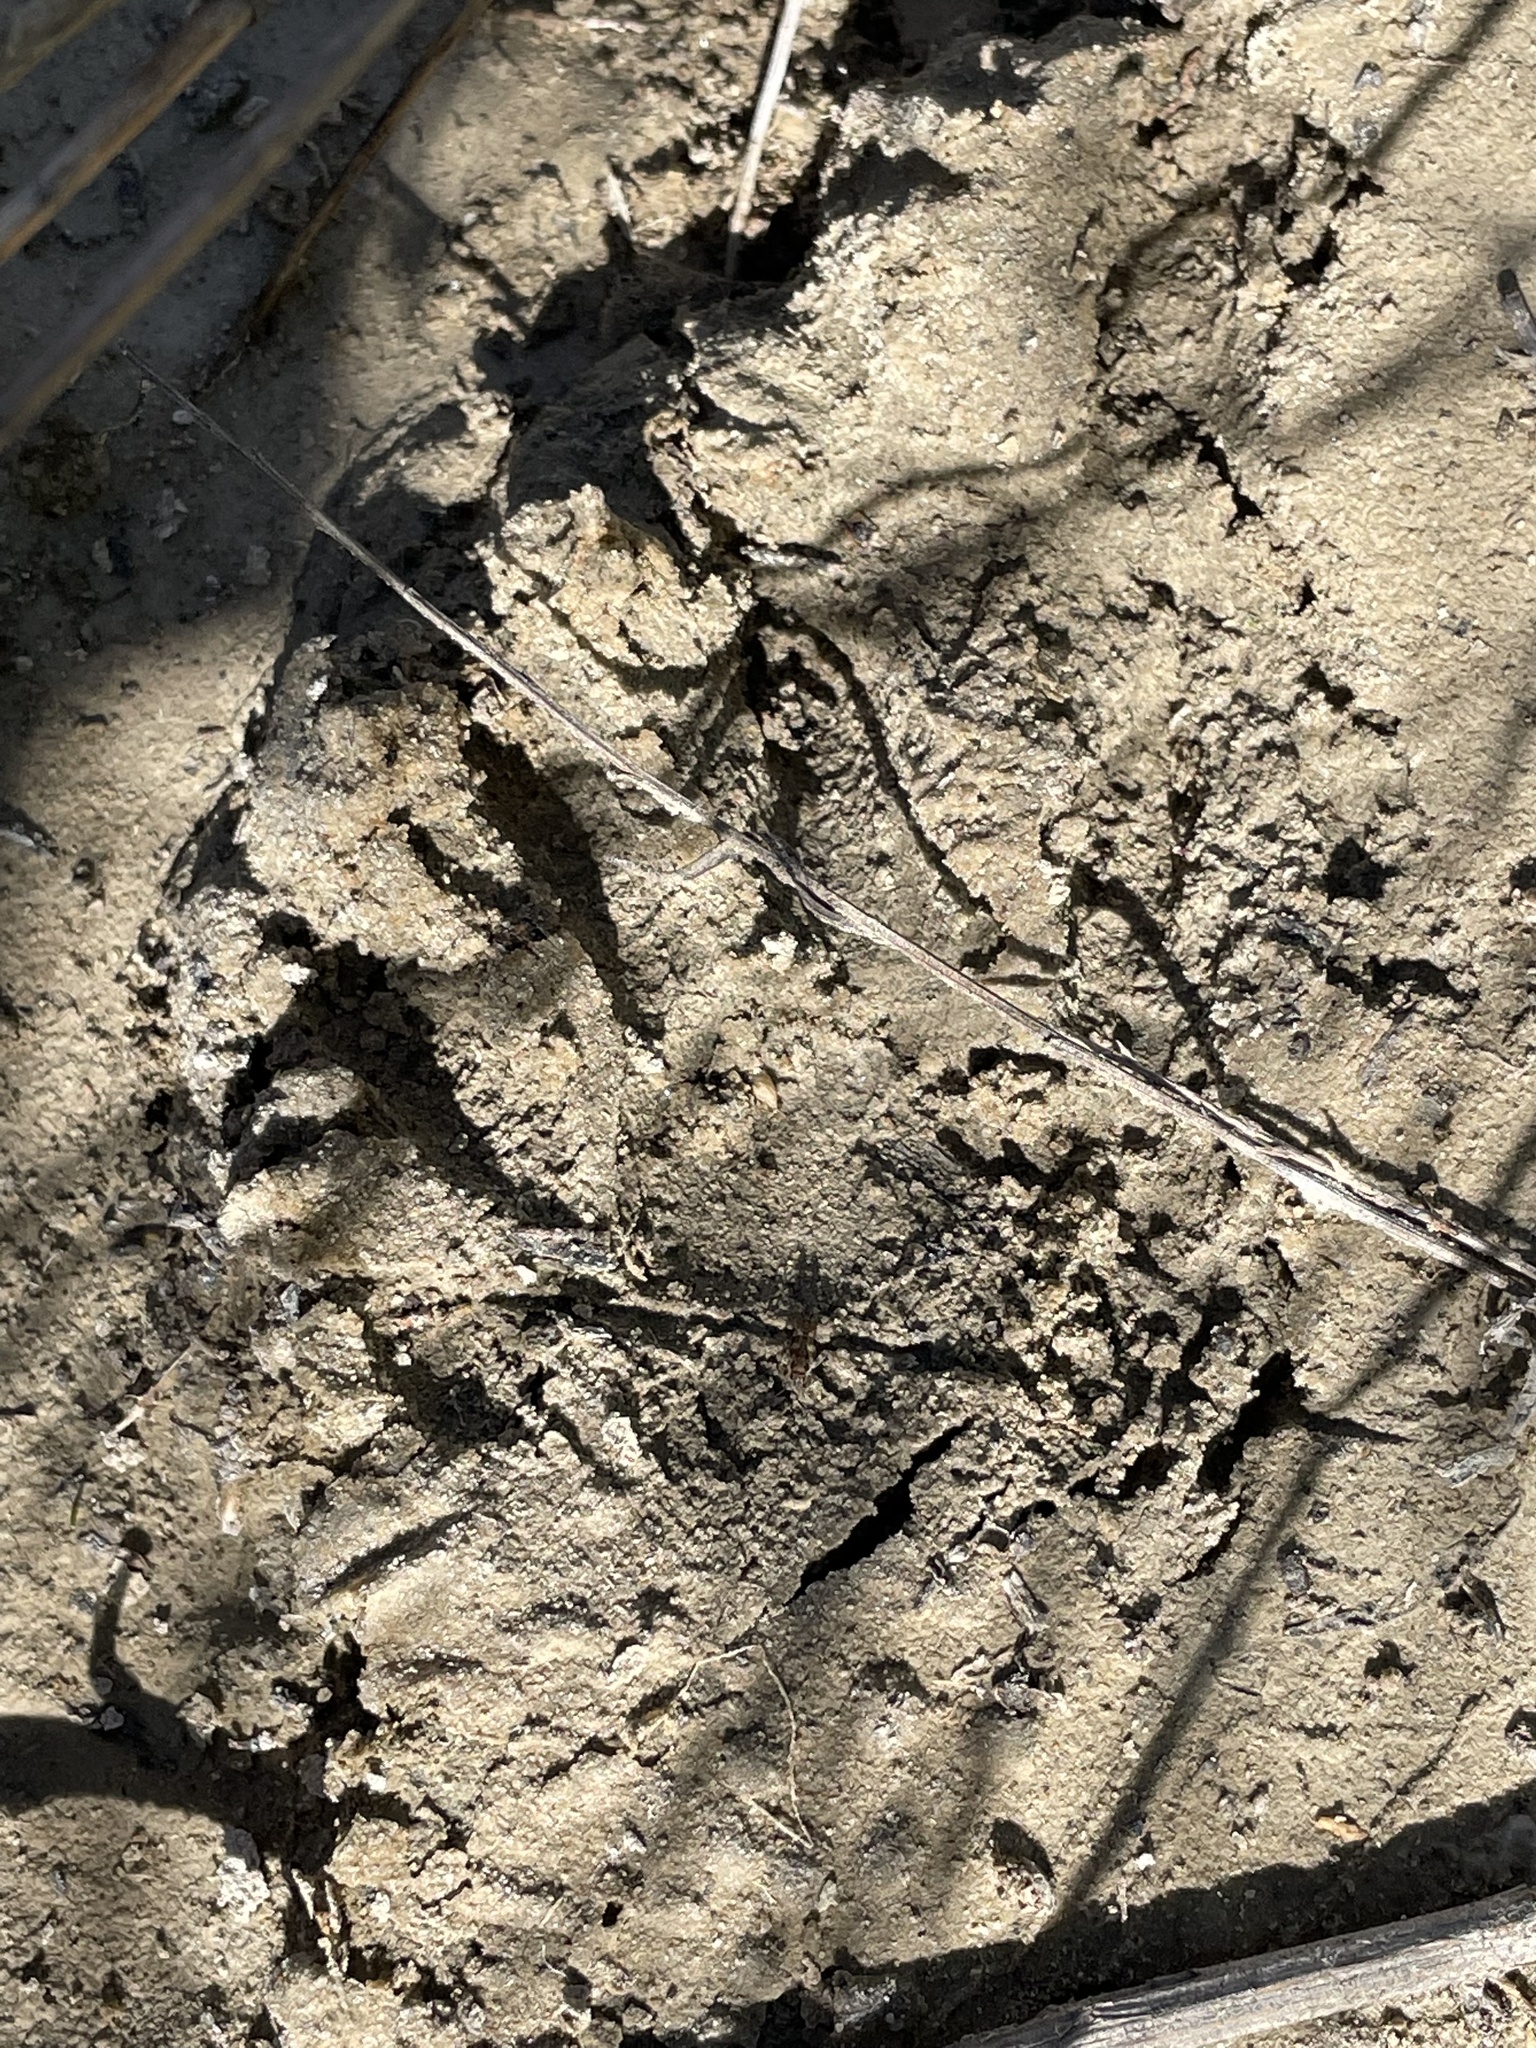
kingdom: Animalia
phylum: Chordata
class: Mammalia
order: Carnivora
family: Procyonidae
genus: Procyon
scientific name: Procyon lotor
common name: Raccoon
